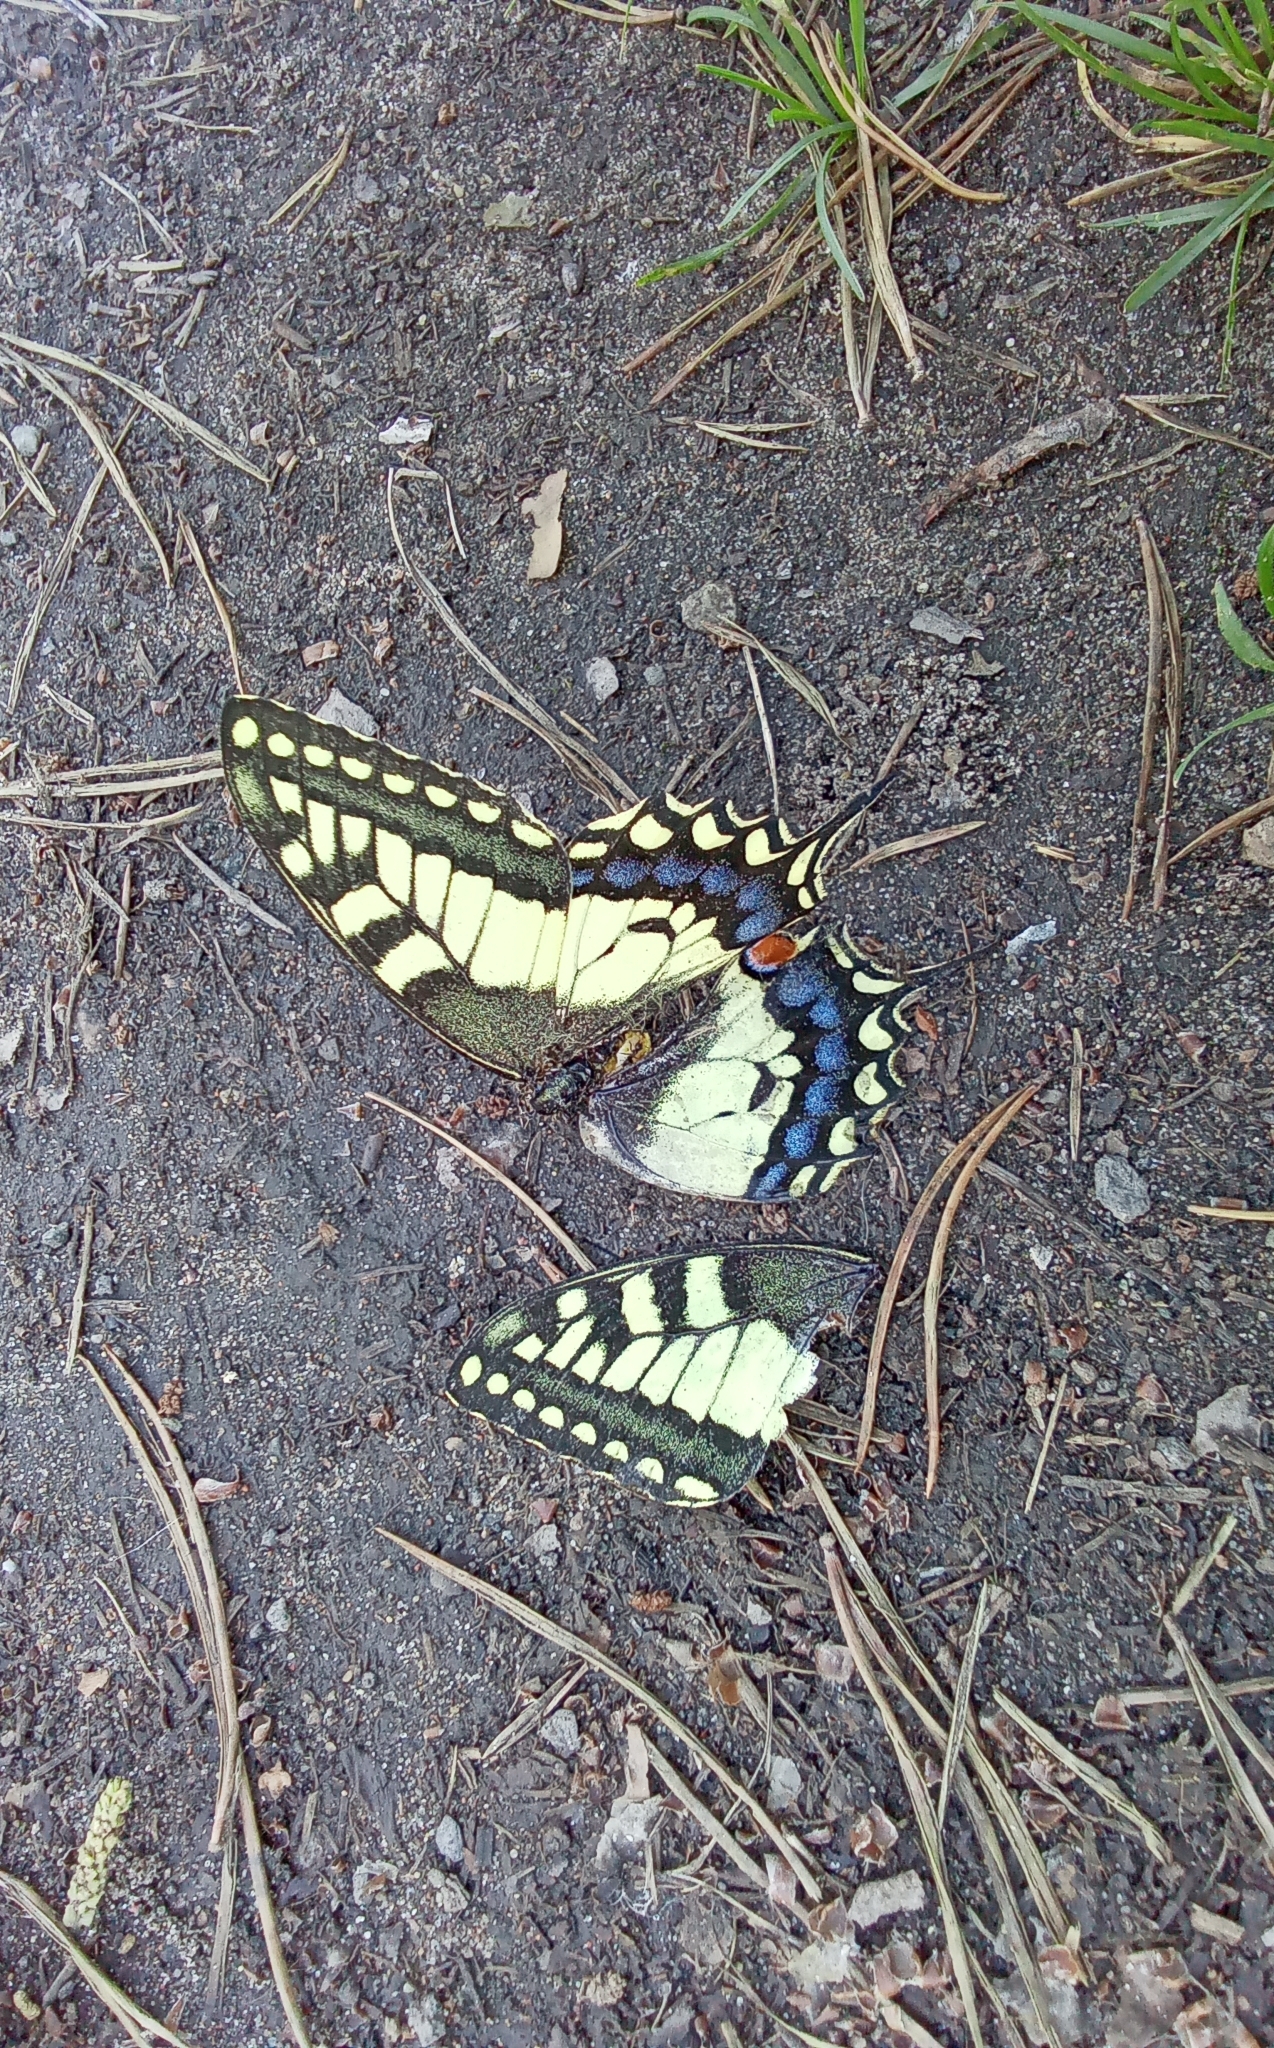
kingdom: Animalia
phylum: Arthropoda
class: Insecta
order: Lepidoptera
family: Papilionidae
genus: Papilio
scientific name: Papilio machaon
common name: Swallowtail
